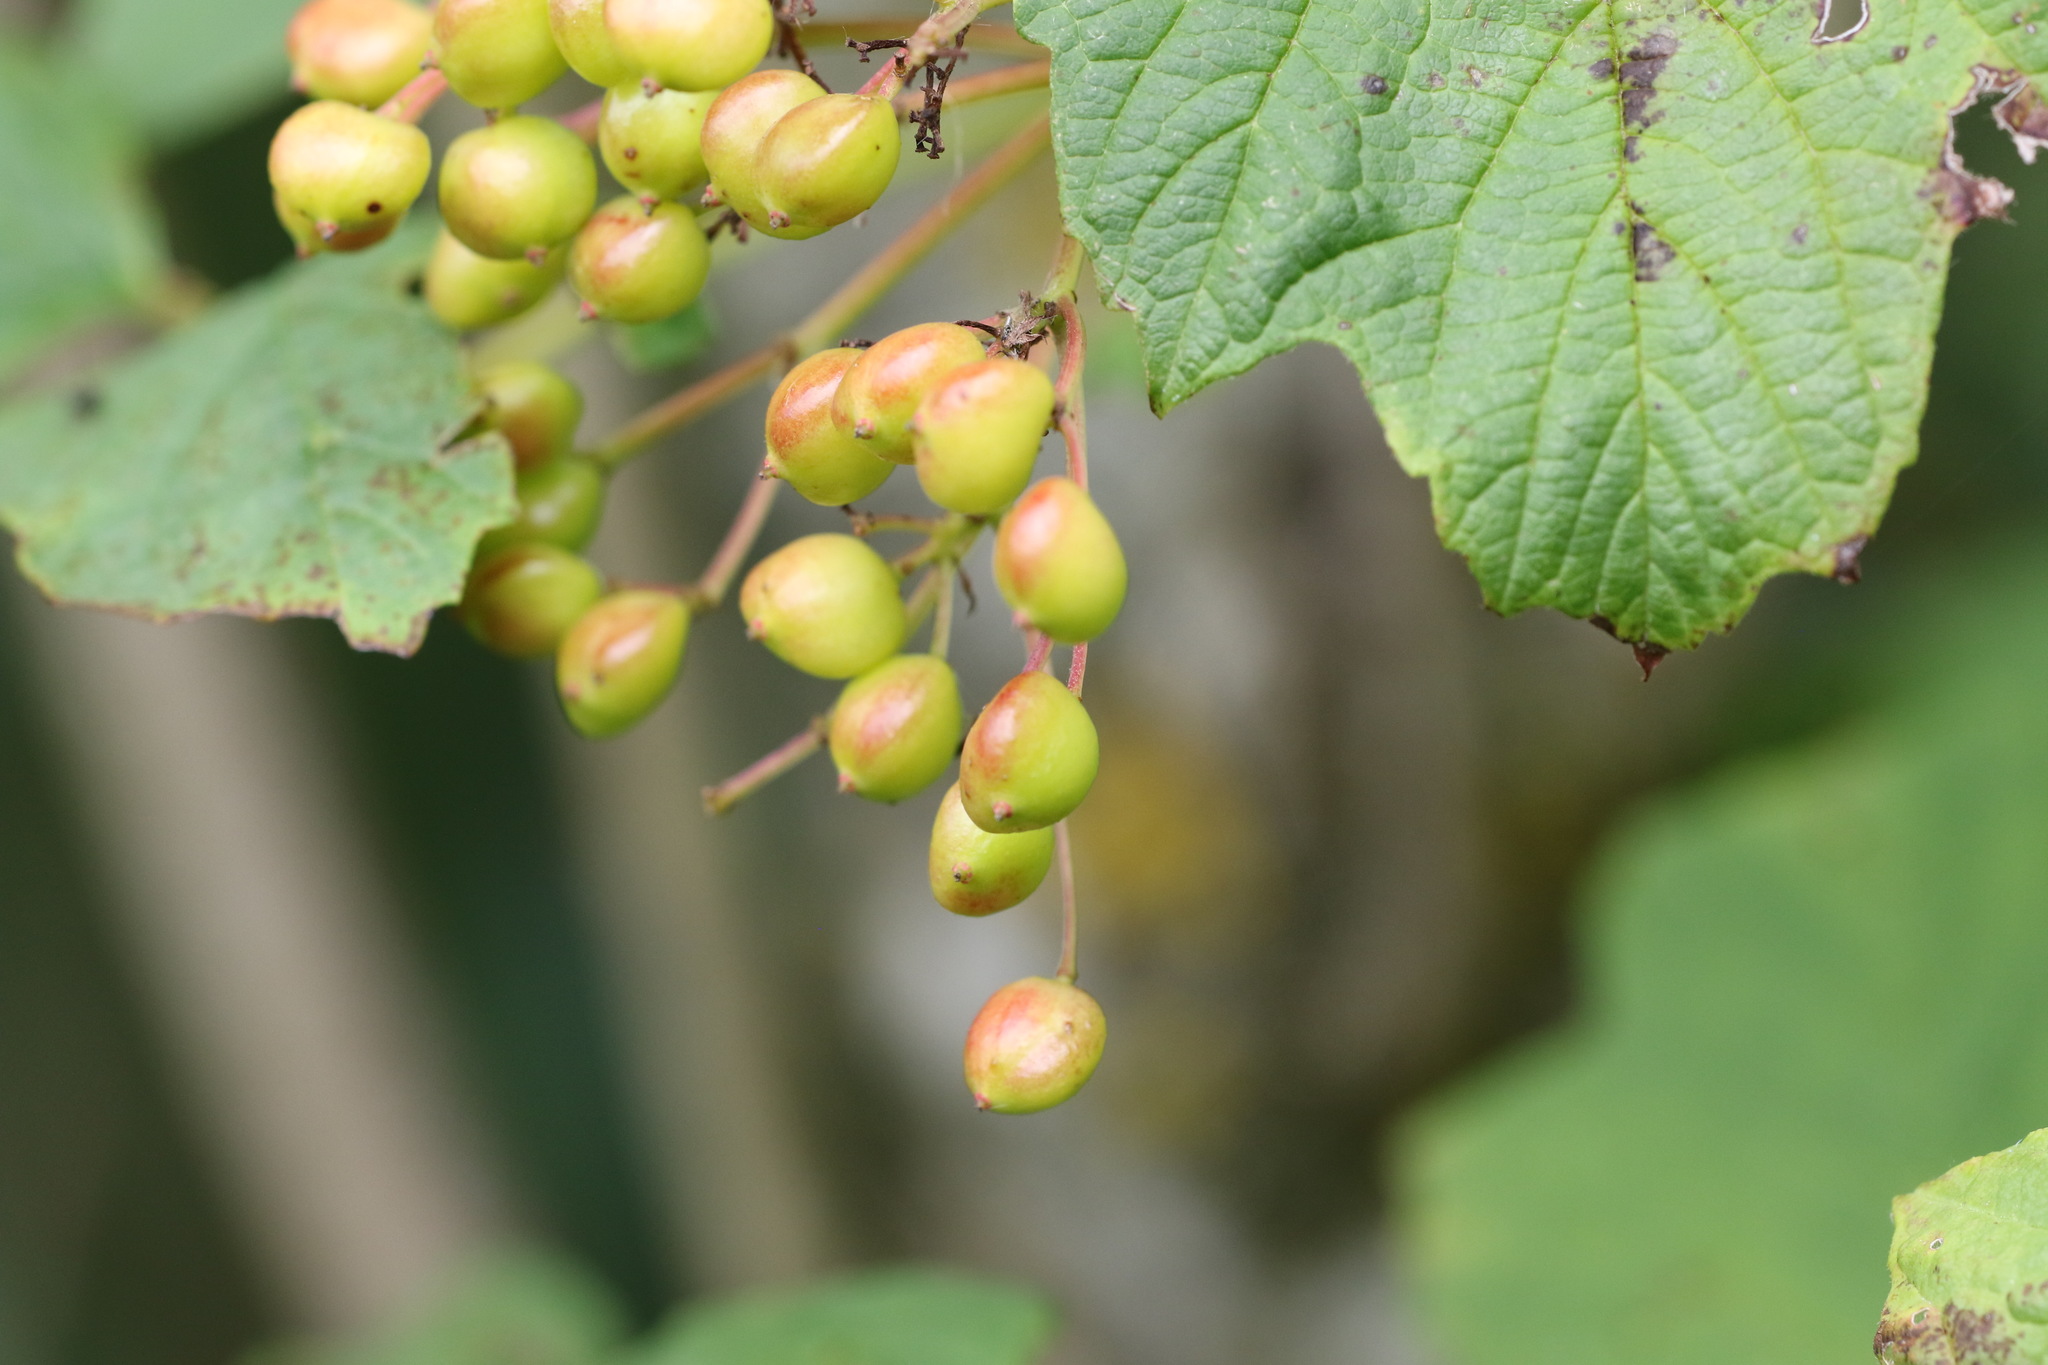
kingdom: Plantae
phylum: Tracheophyta
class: Magnoliopsida
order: Dipsacales
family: Viburnaceae
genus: Viburnum
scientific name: Viburnum opulus
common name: Guelder-rose
